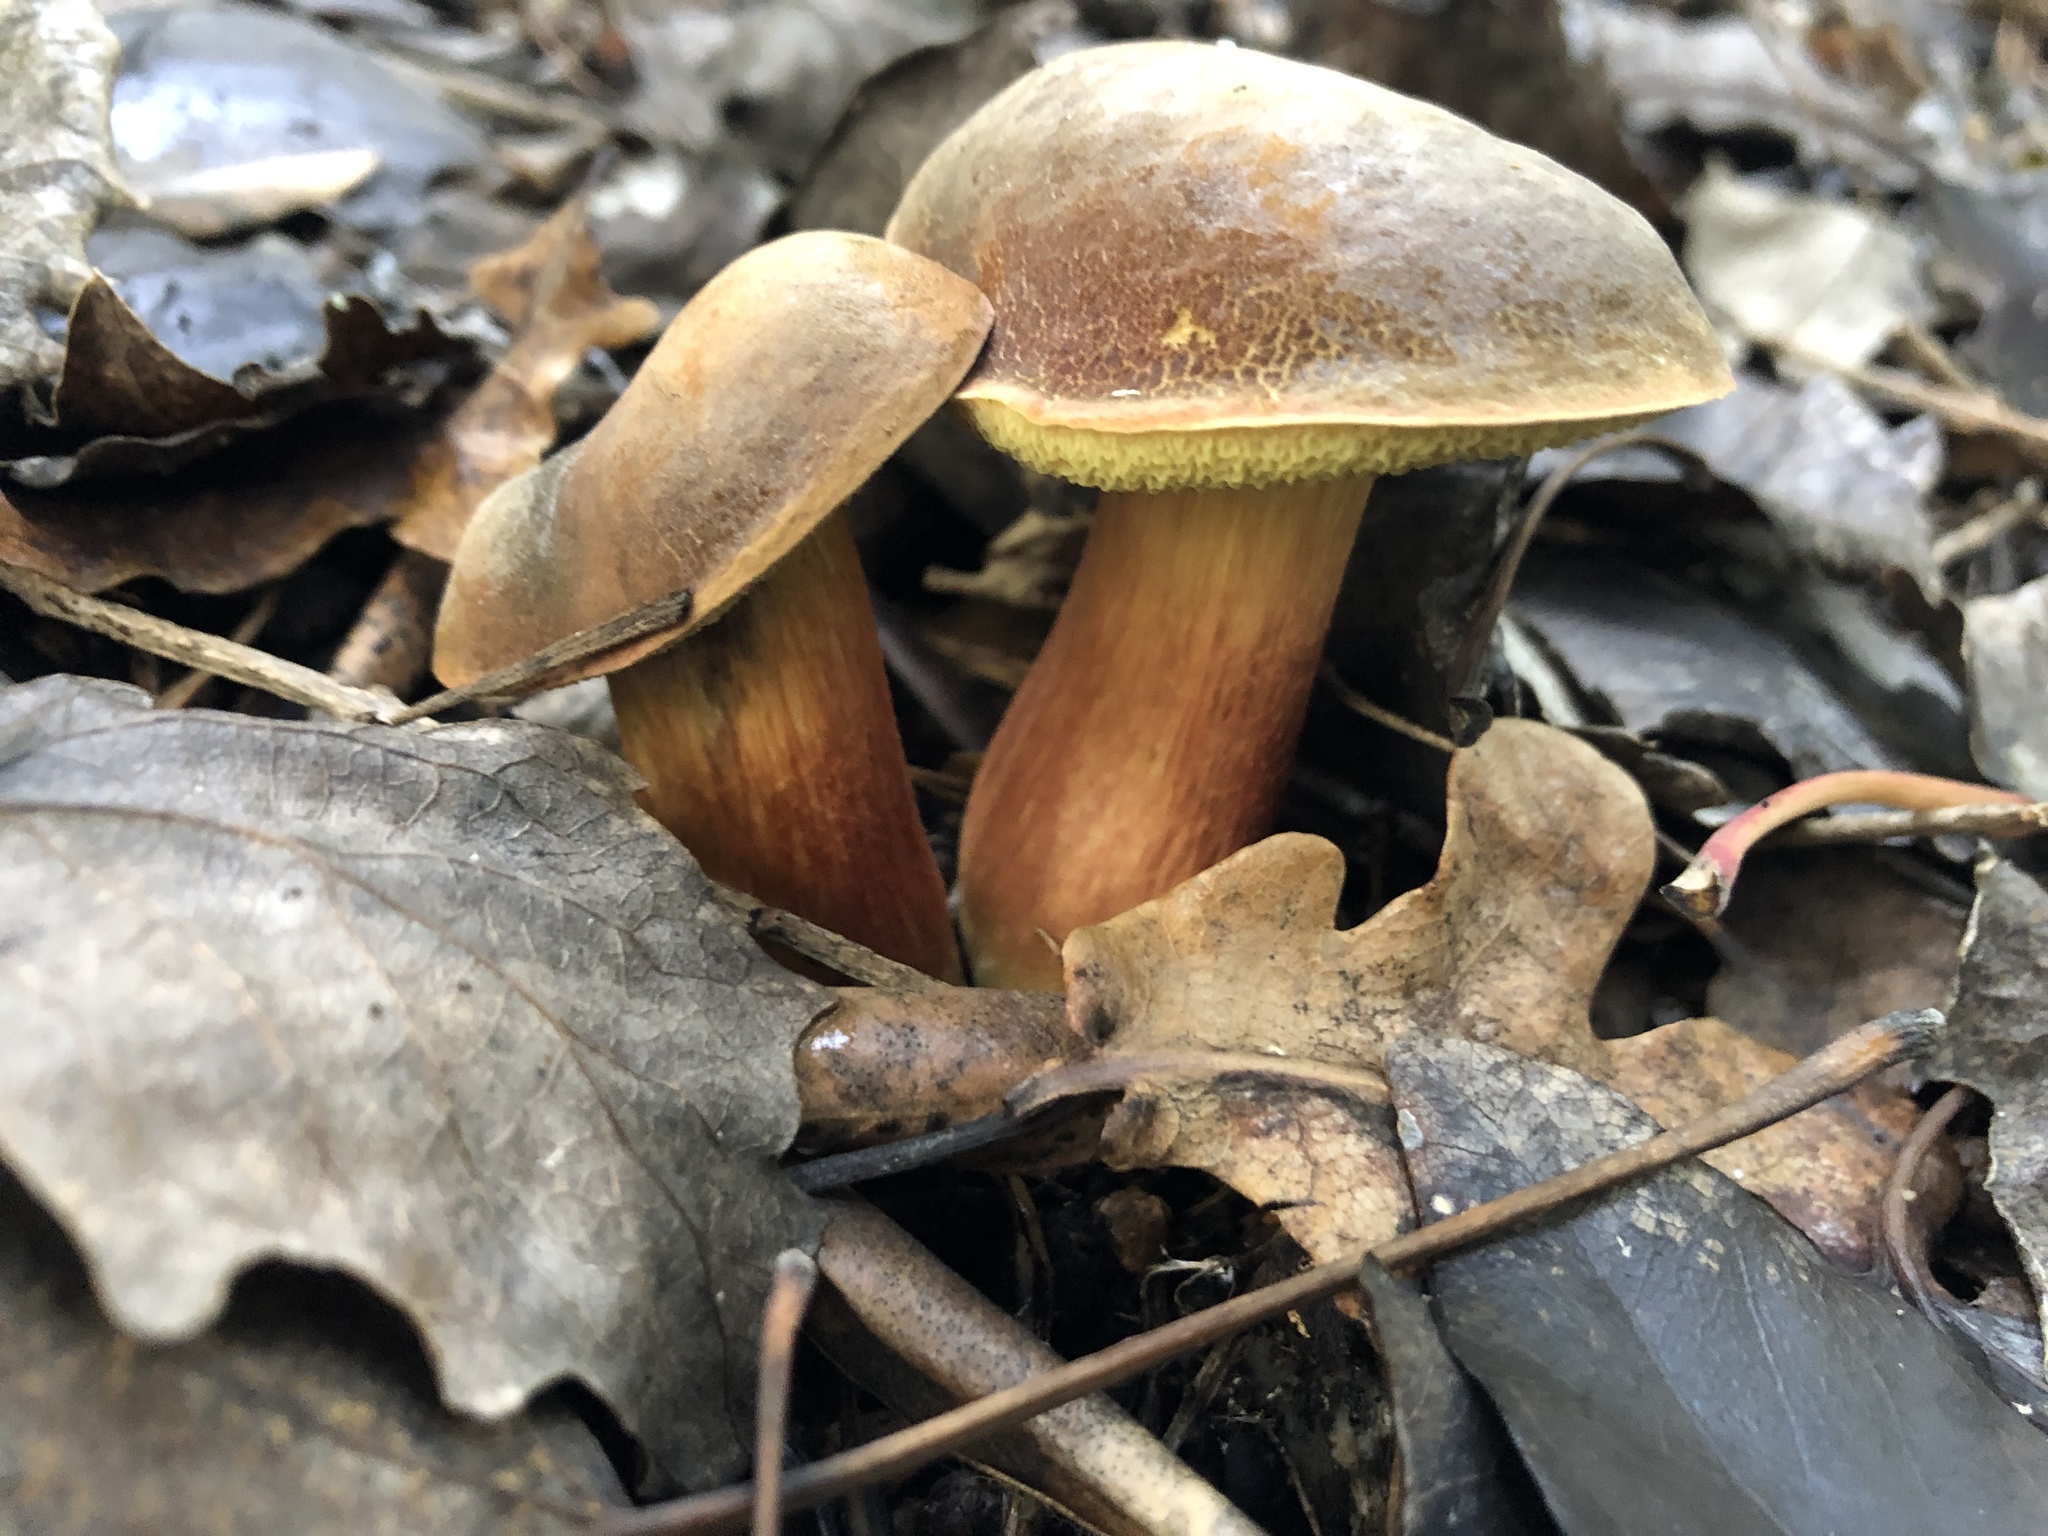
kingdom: Fungi
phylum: Basidiomycota
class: Agaricomycetes
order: Boletales
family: Boletaceae
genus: Xerocomellus
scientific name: Xerocomellus chrysenteron
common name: Red-cracking bolete
